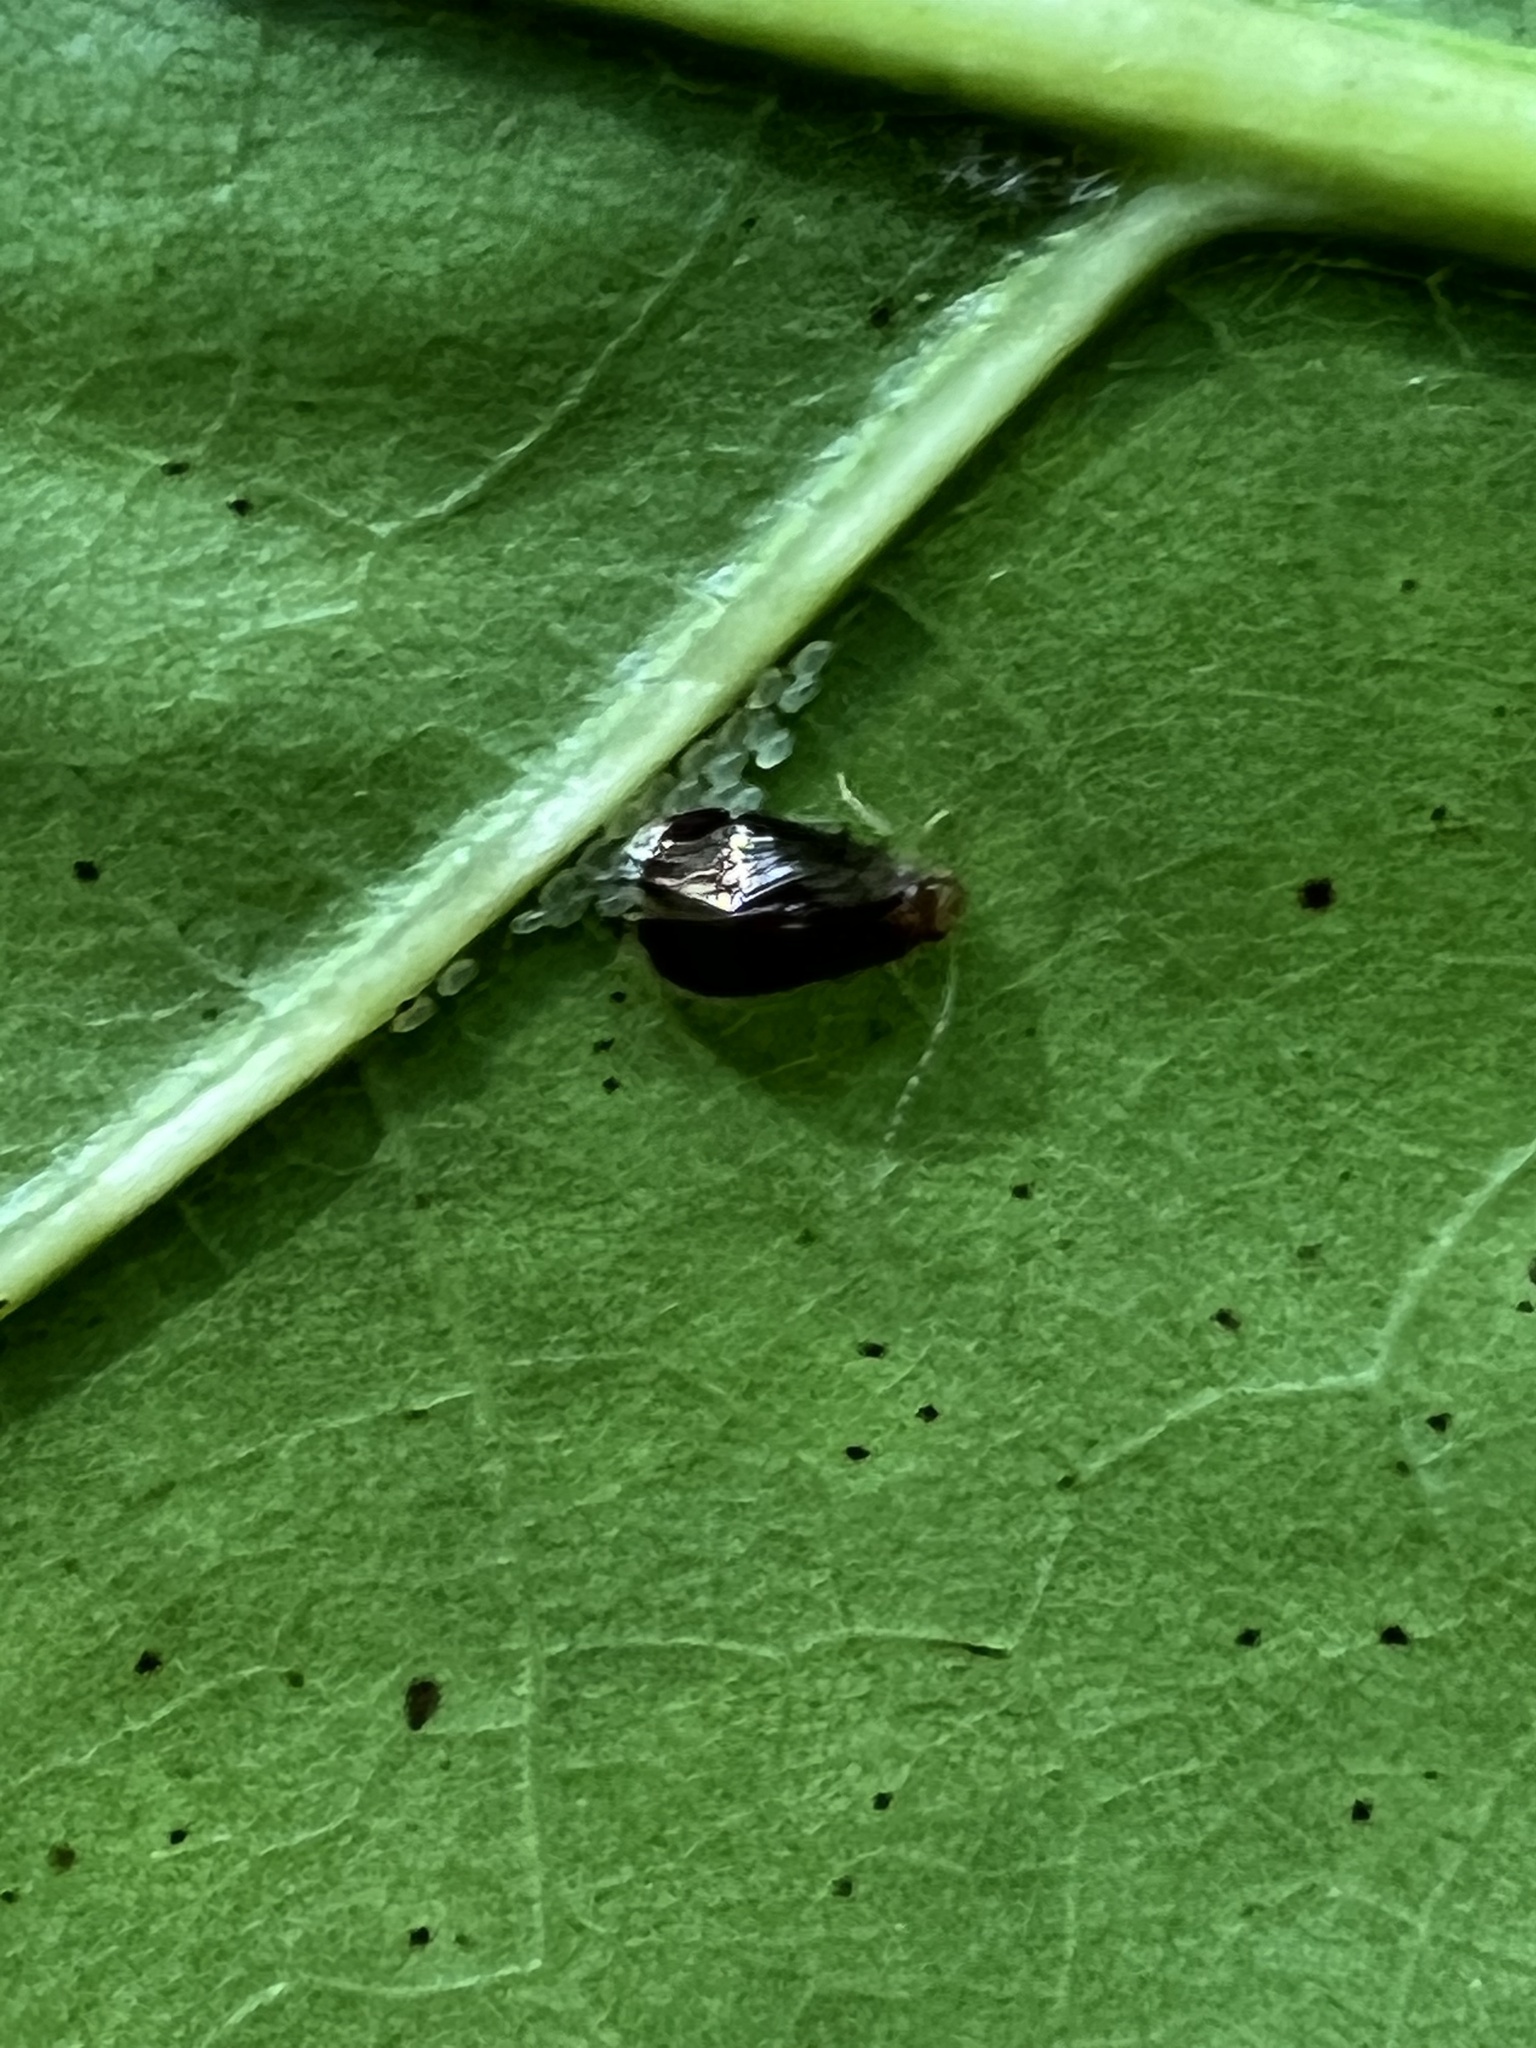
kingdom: Animalia
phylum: Arthropoda
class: Insecta
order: Psocodea
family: Amphipsocidae
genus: Polypsocus
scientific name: Polypsocus corruptus
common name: Corrupt barklouse
